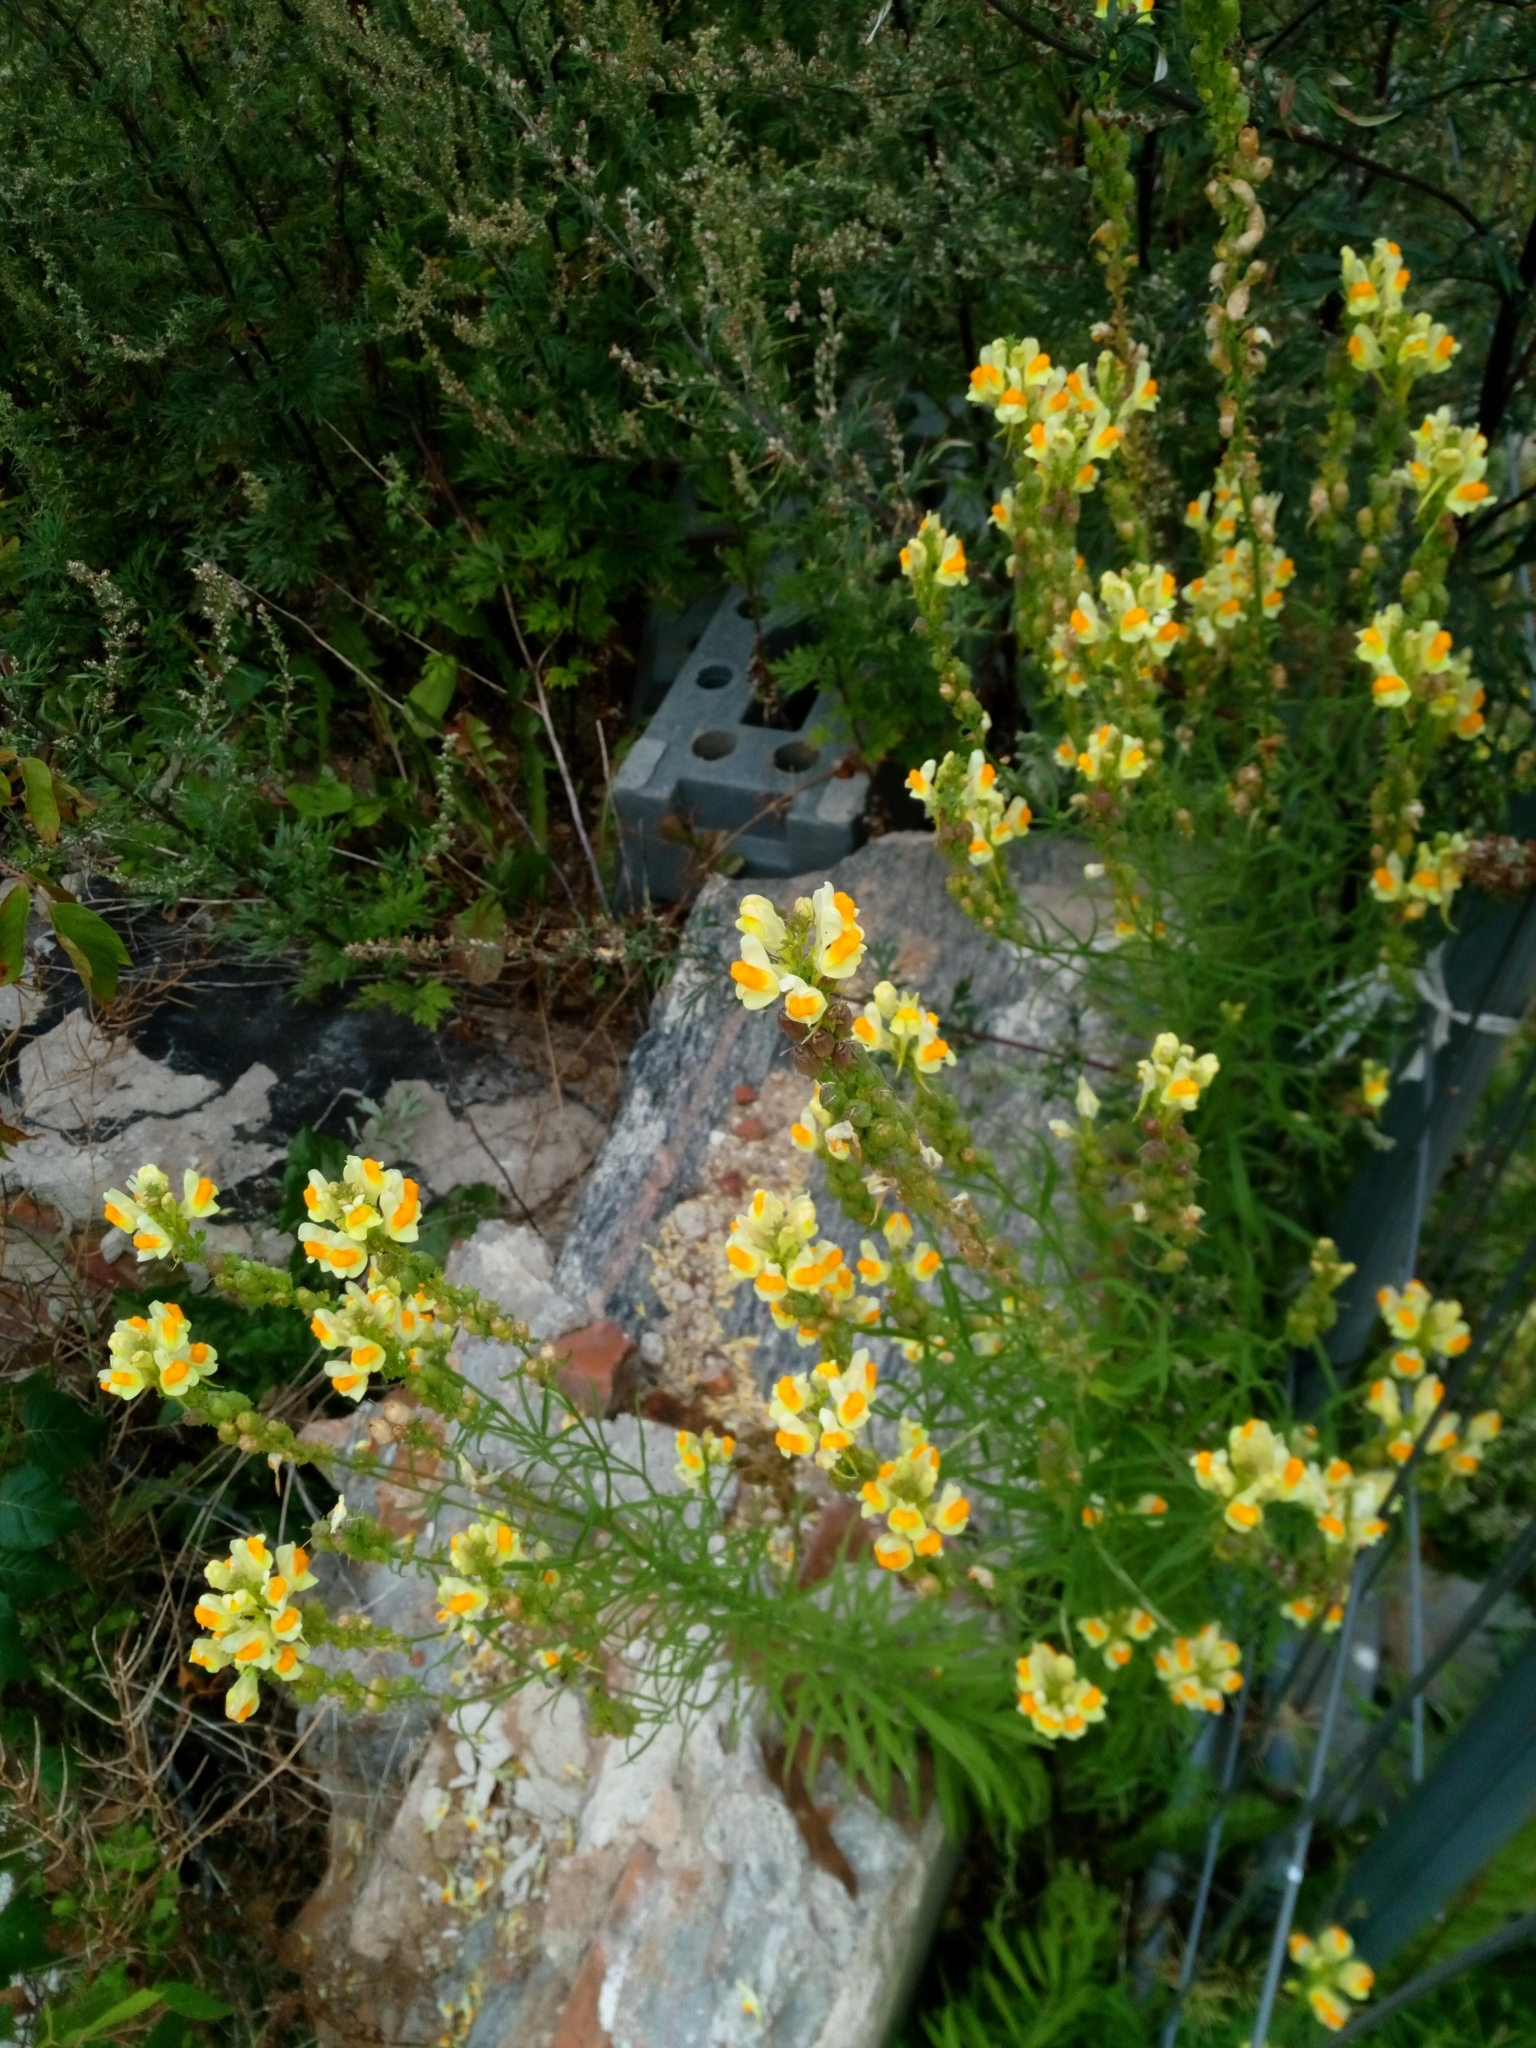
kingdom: Plantae
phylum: Tracheophyta
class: Magnoliopsida
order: Lamiales
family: Plantaginaceae
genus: Linaria
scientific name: Linaria vulgaris
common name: Butter and eggs
